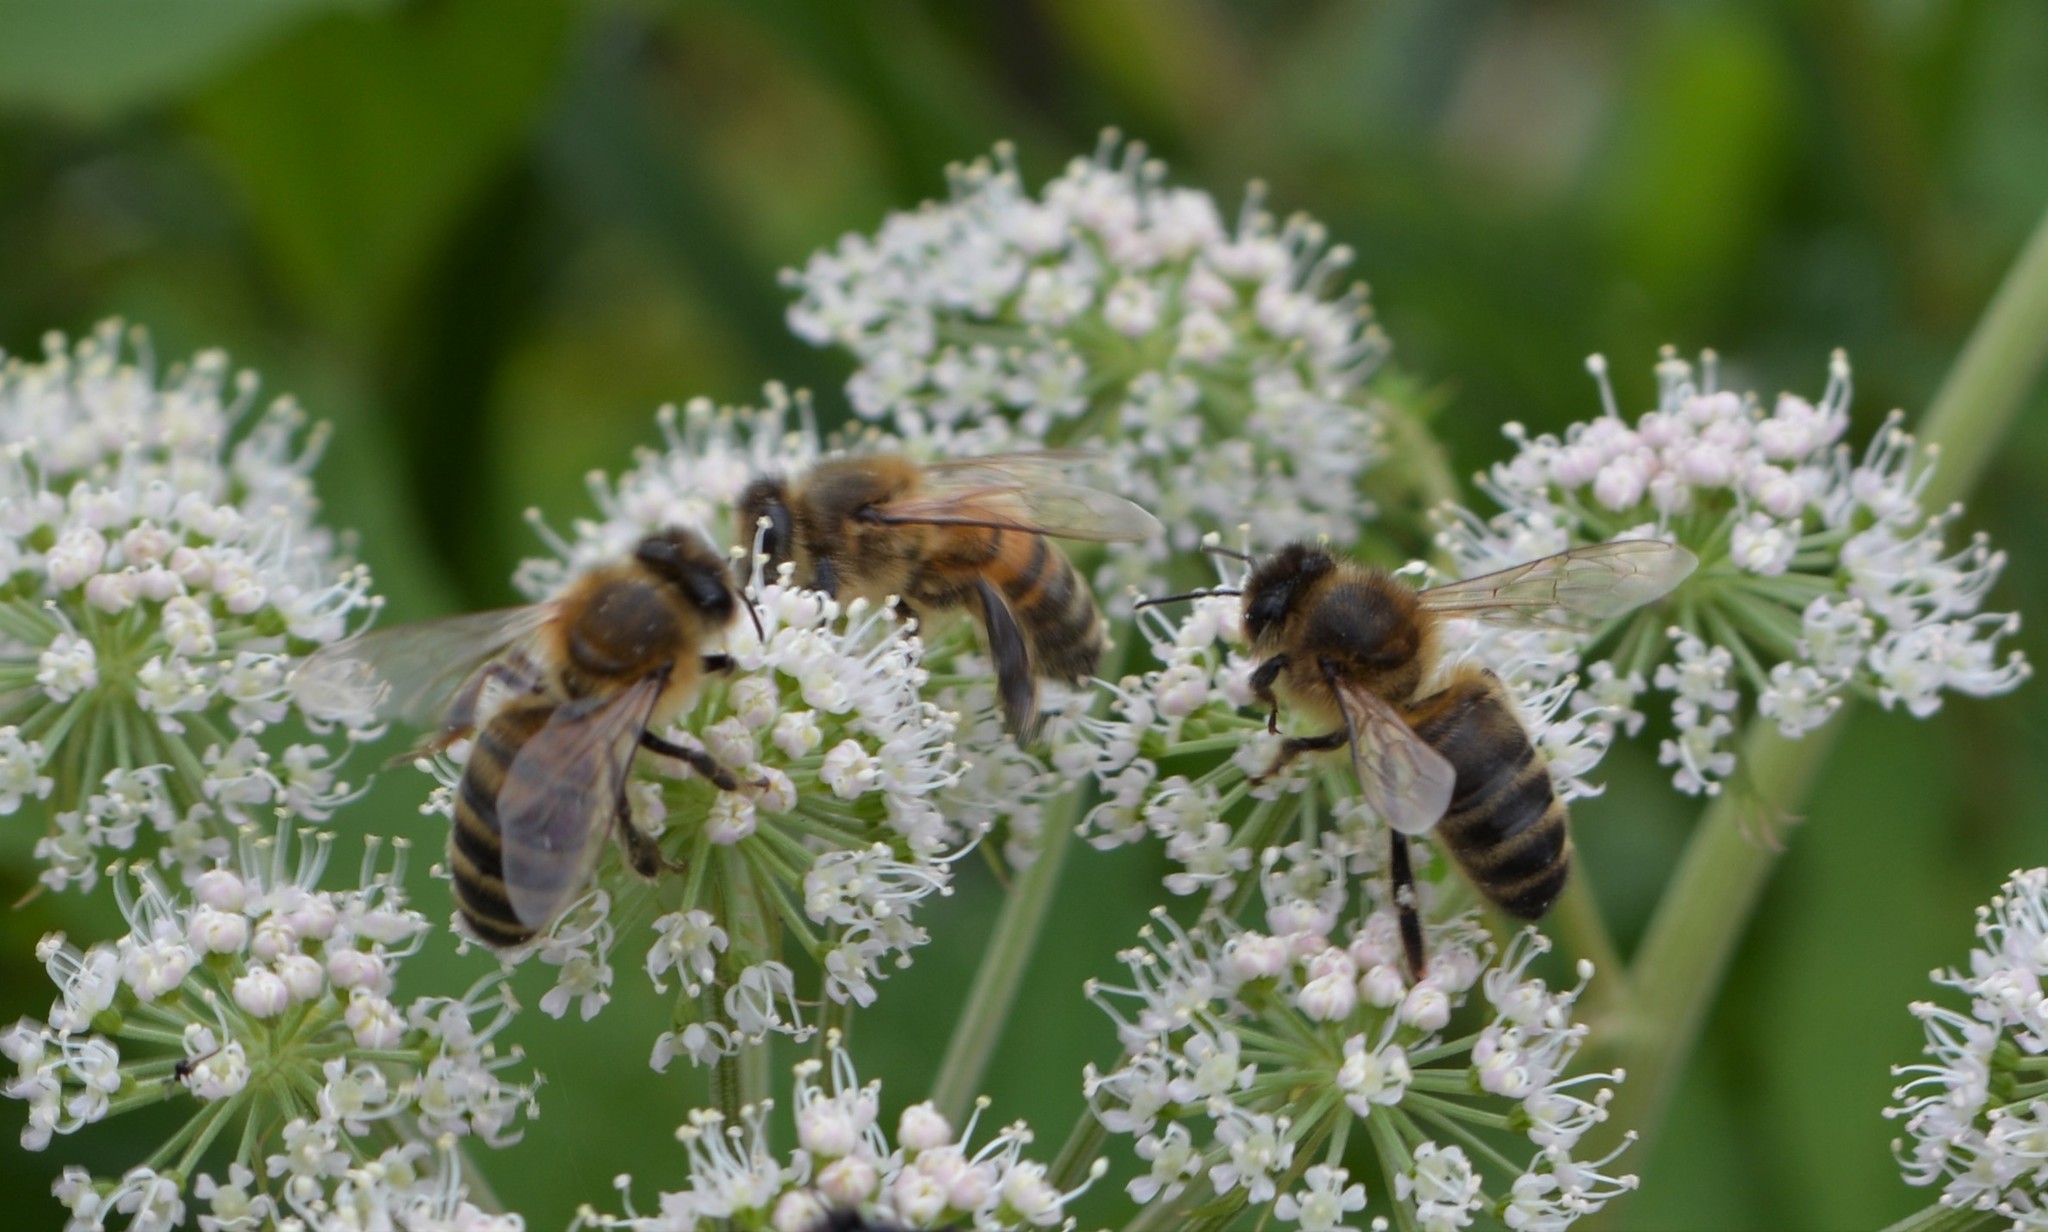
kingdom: Animalia
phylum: Arthropoda
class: Insecta
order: Hymenoptera
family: Apidae
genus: Apis
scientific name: Apis mellifera
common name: Honey bee
